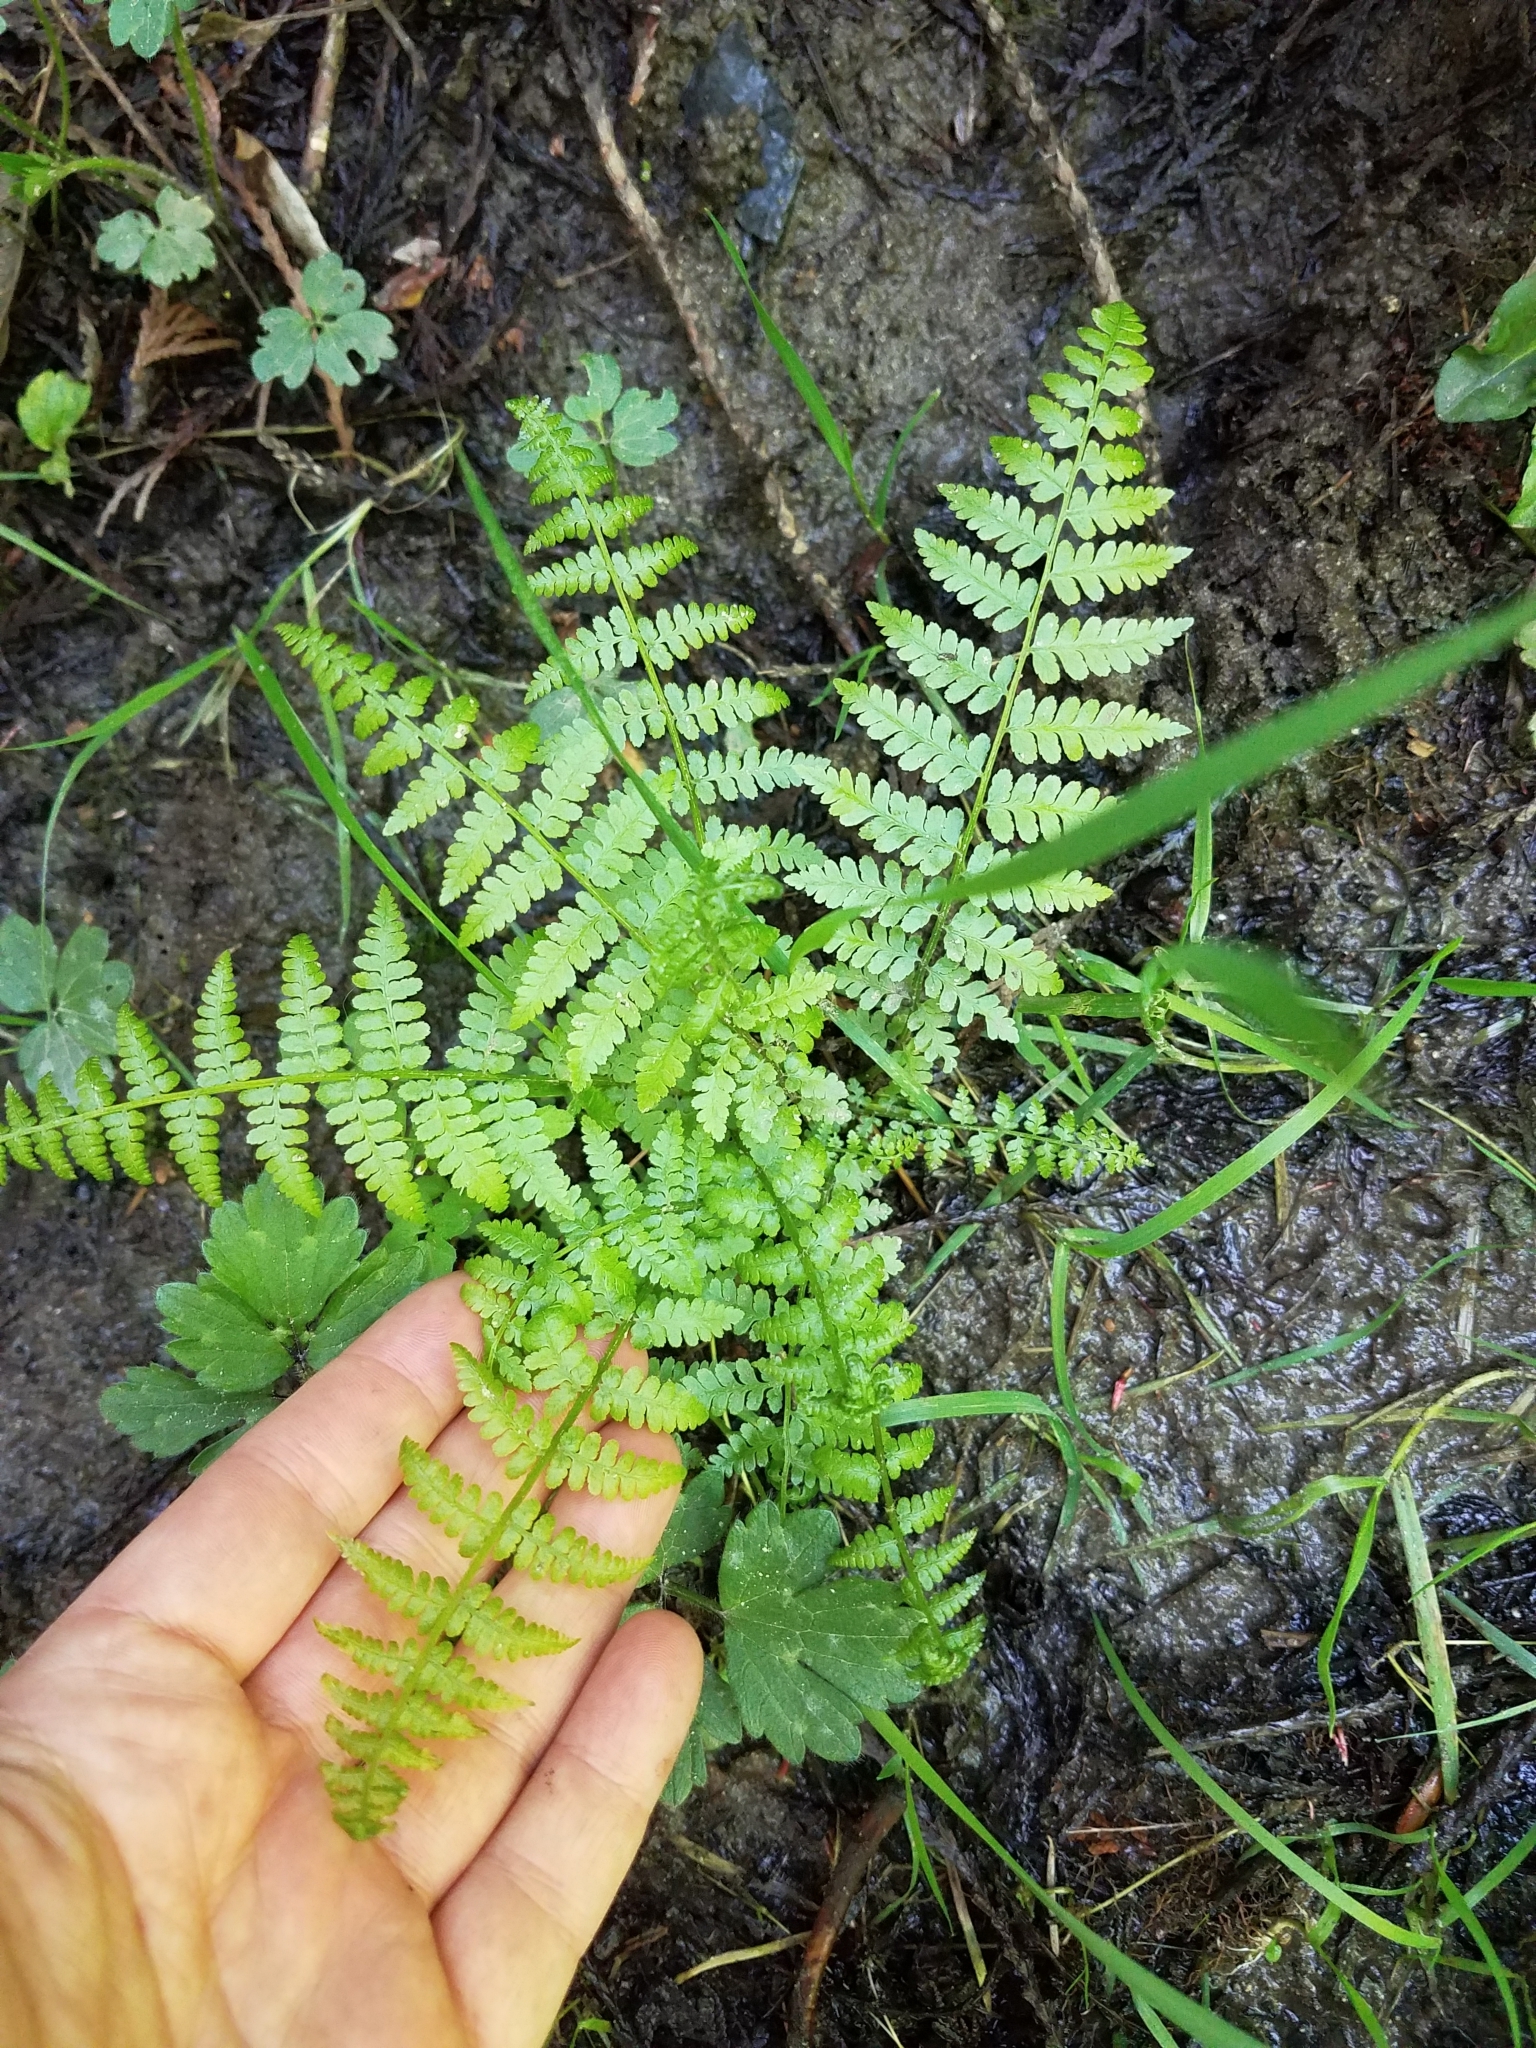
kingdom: Plantae
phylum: Tracheophyta
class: Polypodiopsida
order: Polypodiales
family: Athyriaceae
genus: Athyrium
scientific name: Athyrium filix-femina
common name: Lady fern
